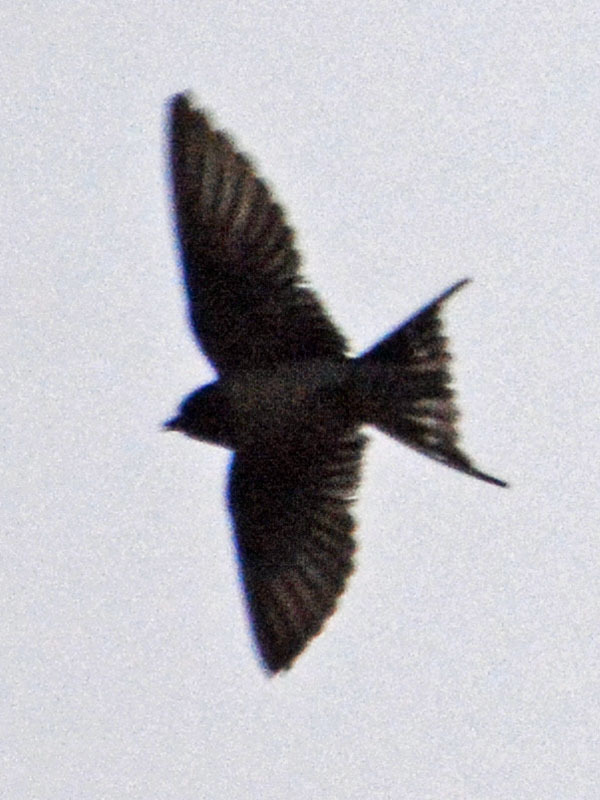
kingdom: Animalia
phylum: Chordata
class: Aves
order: Passeriformes
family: Hirundinidae
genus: Hirundo
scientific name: Hirundo rustica
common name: Barn swallow
